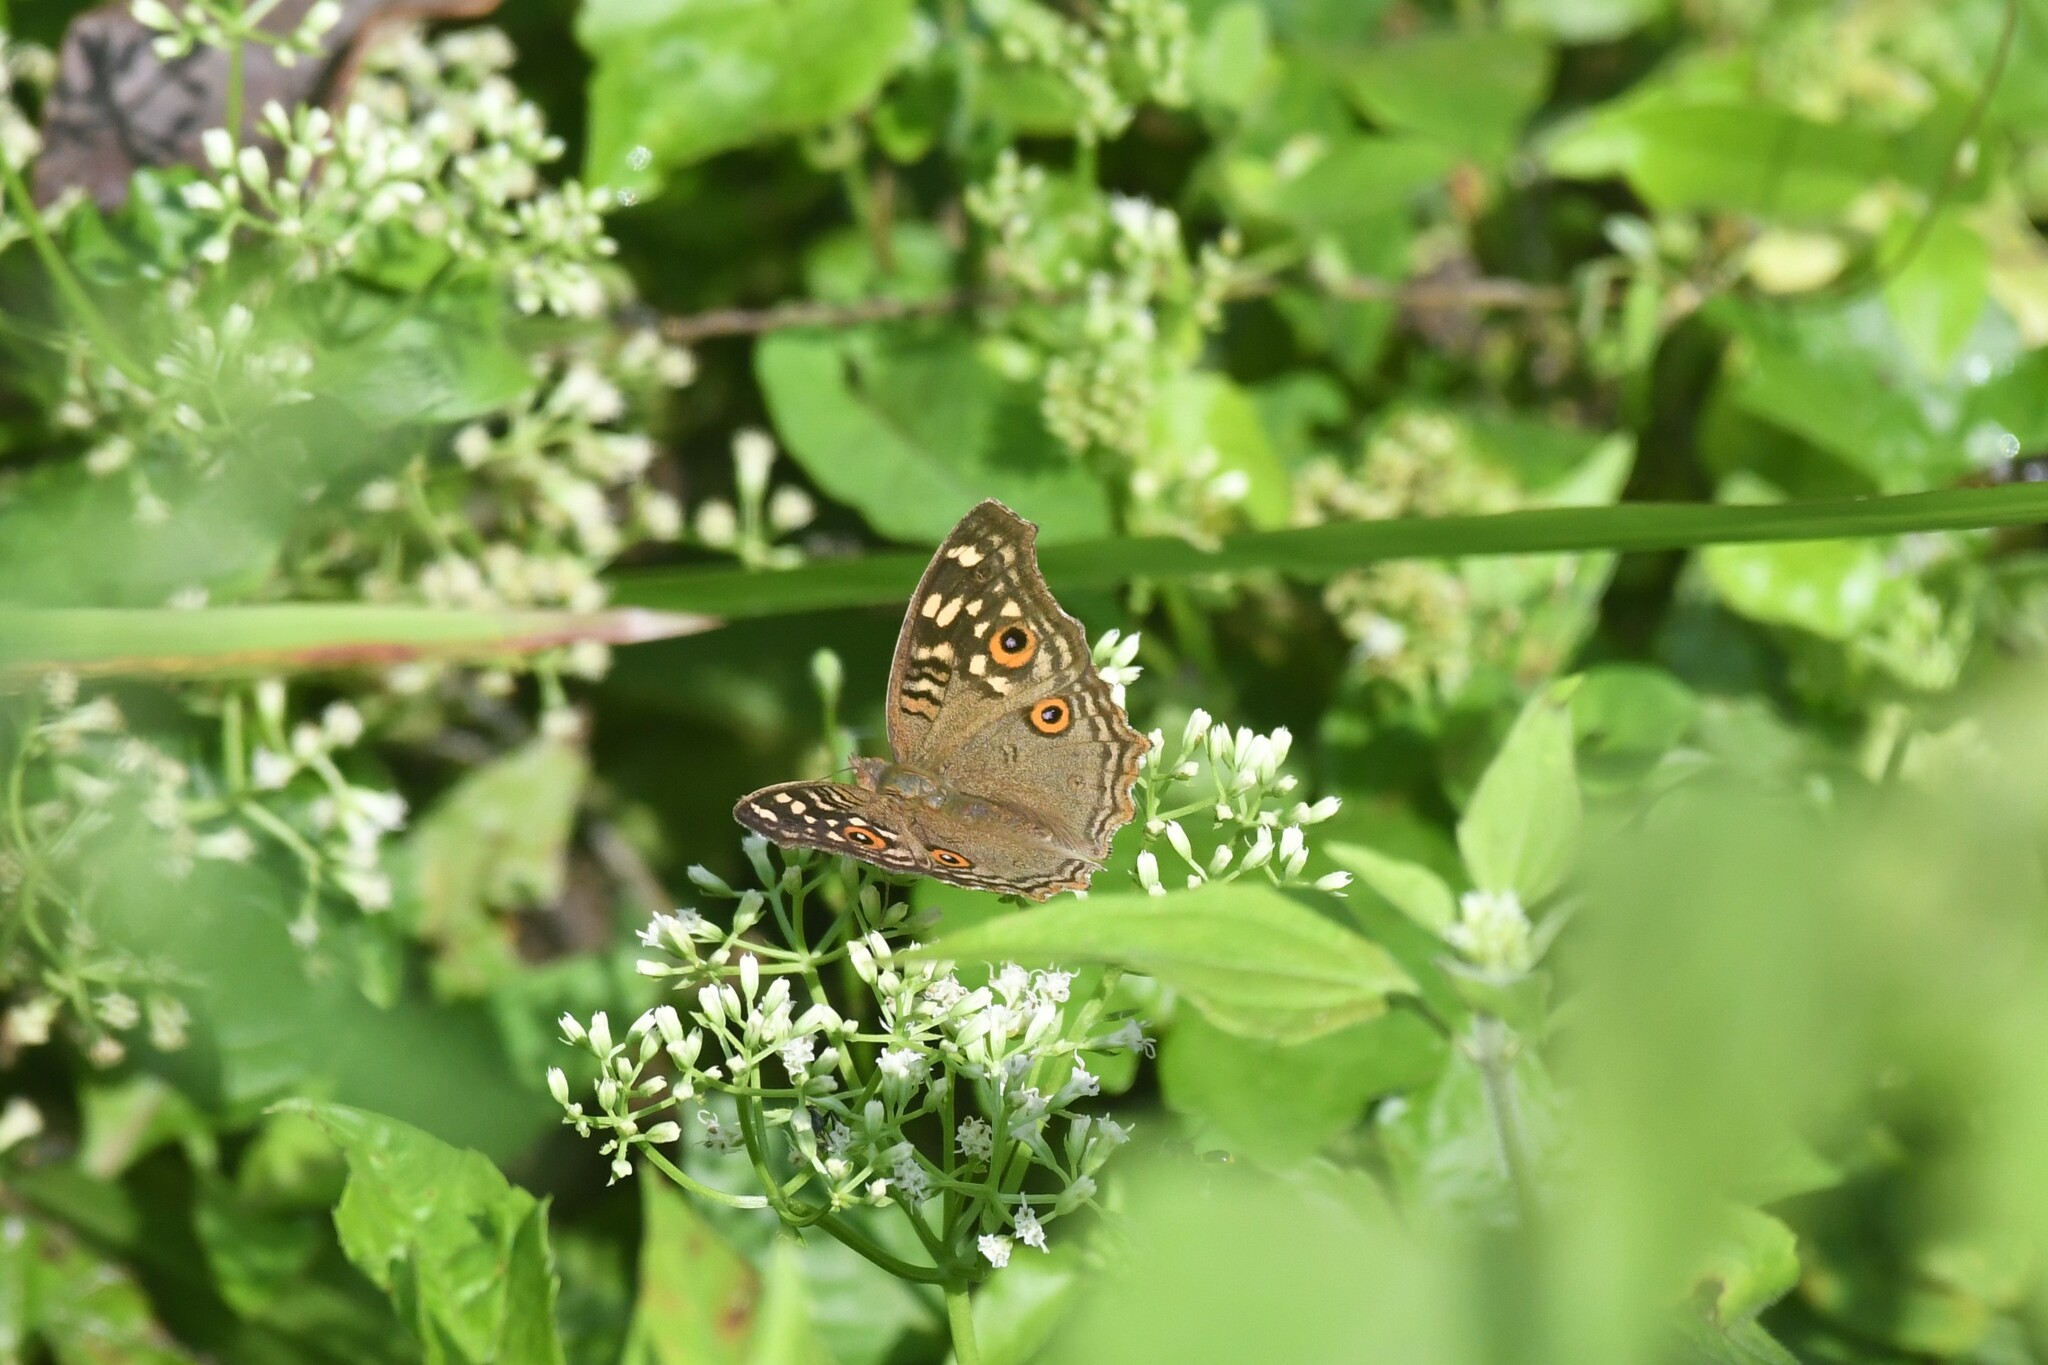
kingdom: Animalia
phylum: Arthropoda
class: Insecta
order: Lepidoptera
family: Nymphalidae
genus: Junonia
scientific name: Junonia lemonias
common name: Lemon pansy
